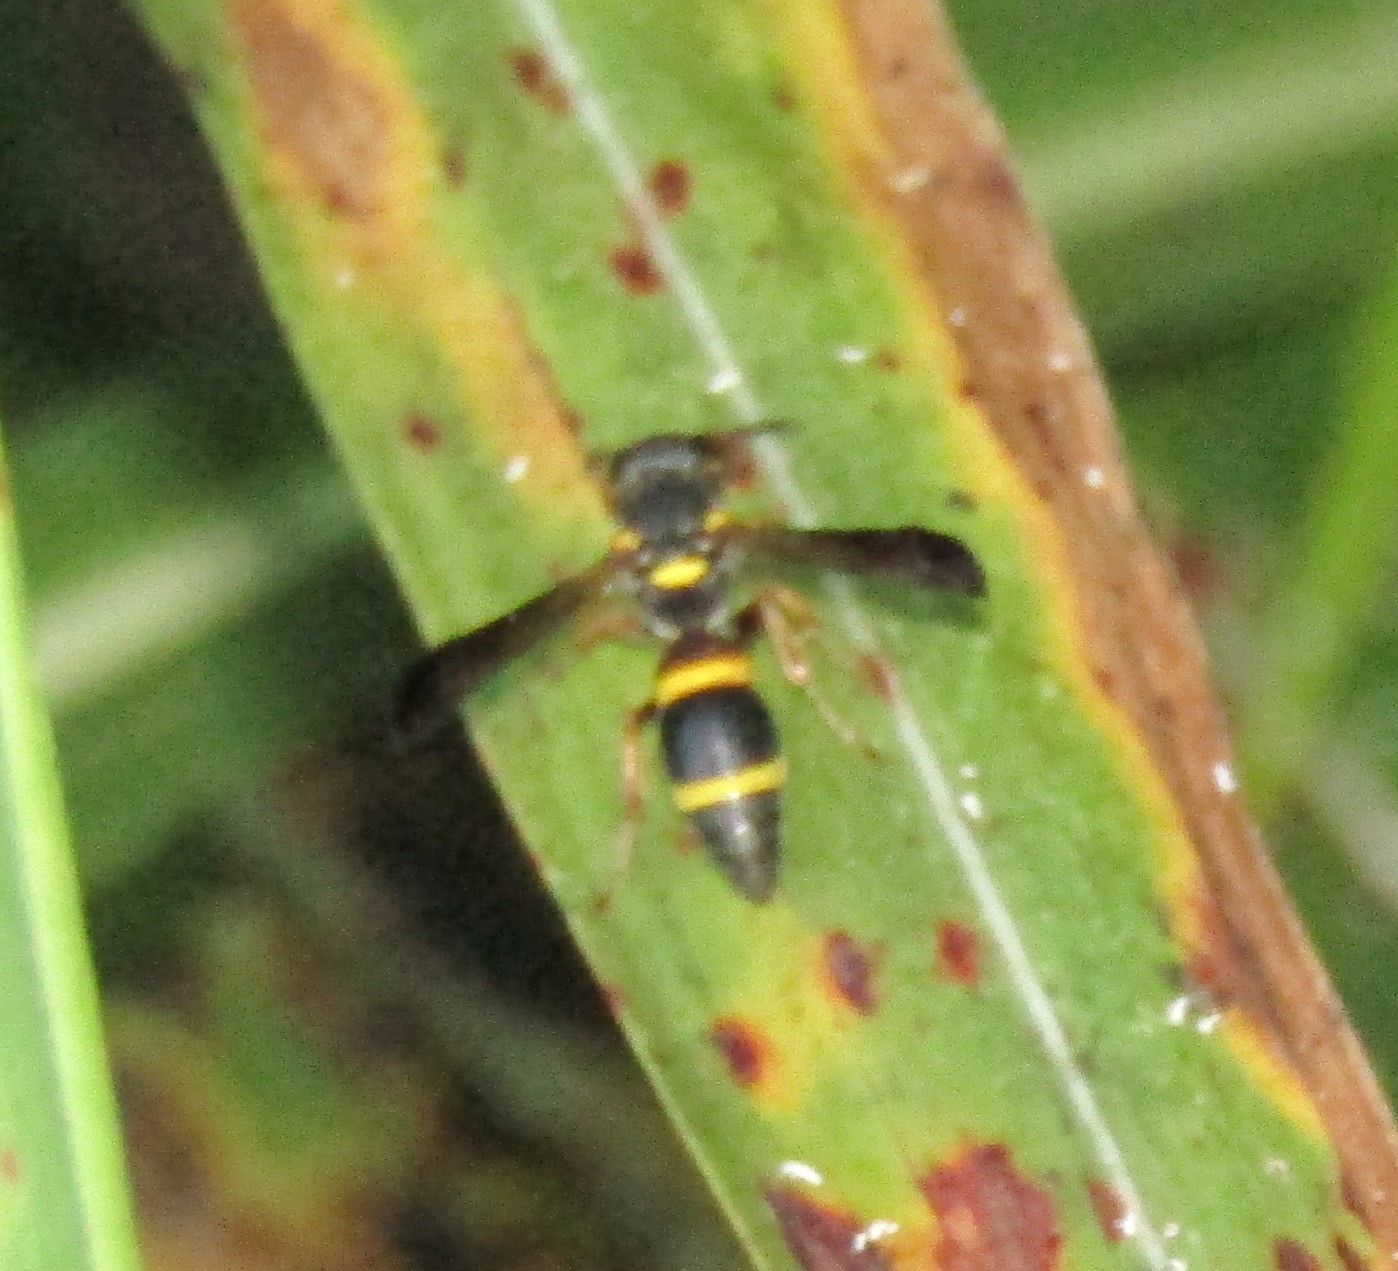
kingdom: Animalia
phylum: Arthropoda
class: Insecta
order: Hymenoptera
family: Eumenidae
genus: Parancistrocerus
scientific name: Parancistrocerus perennis
